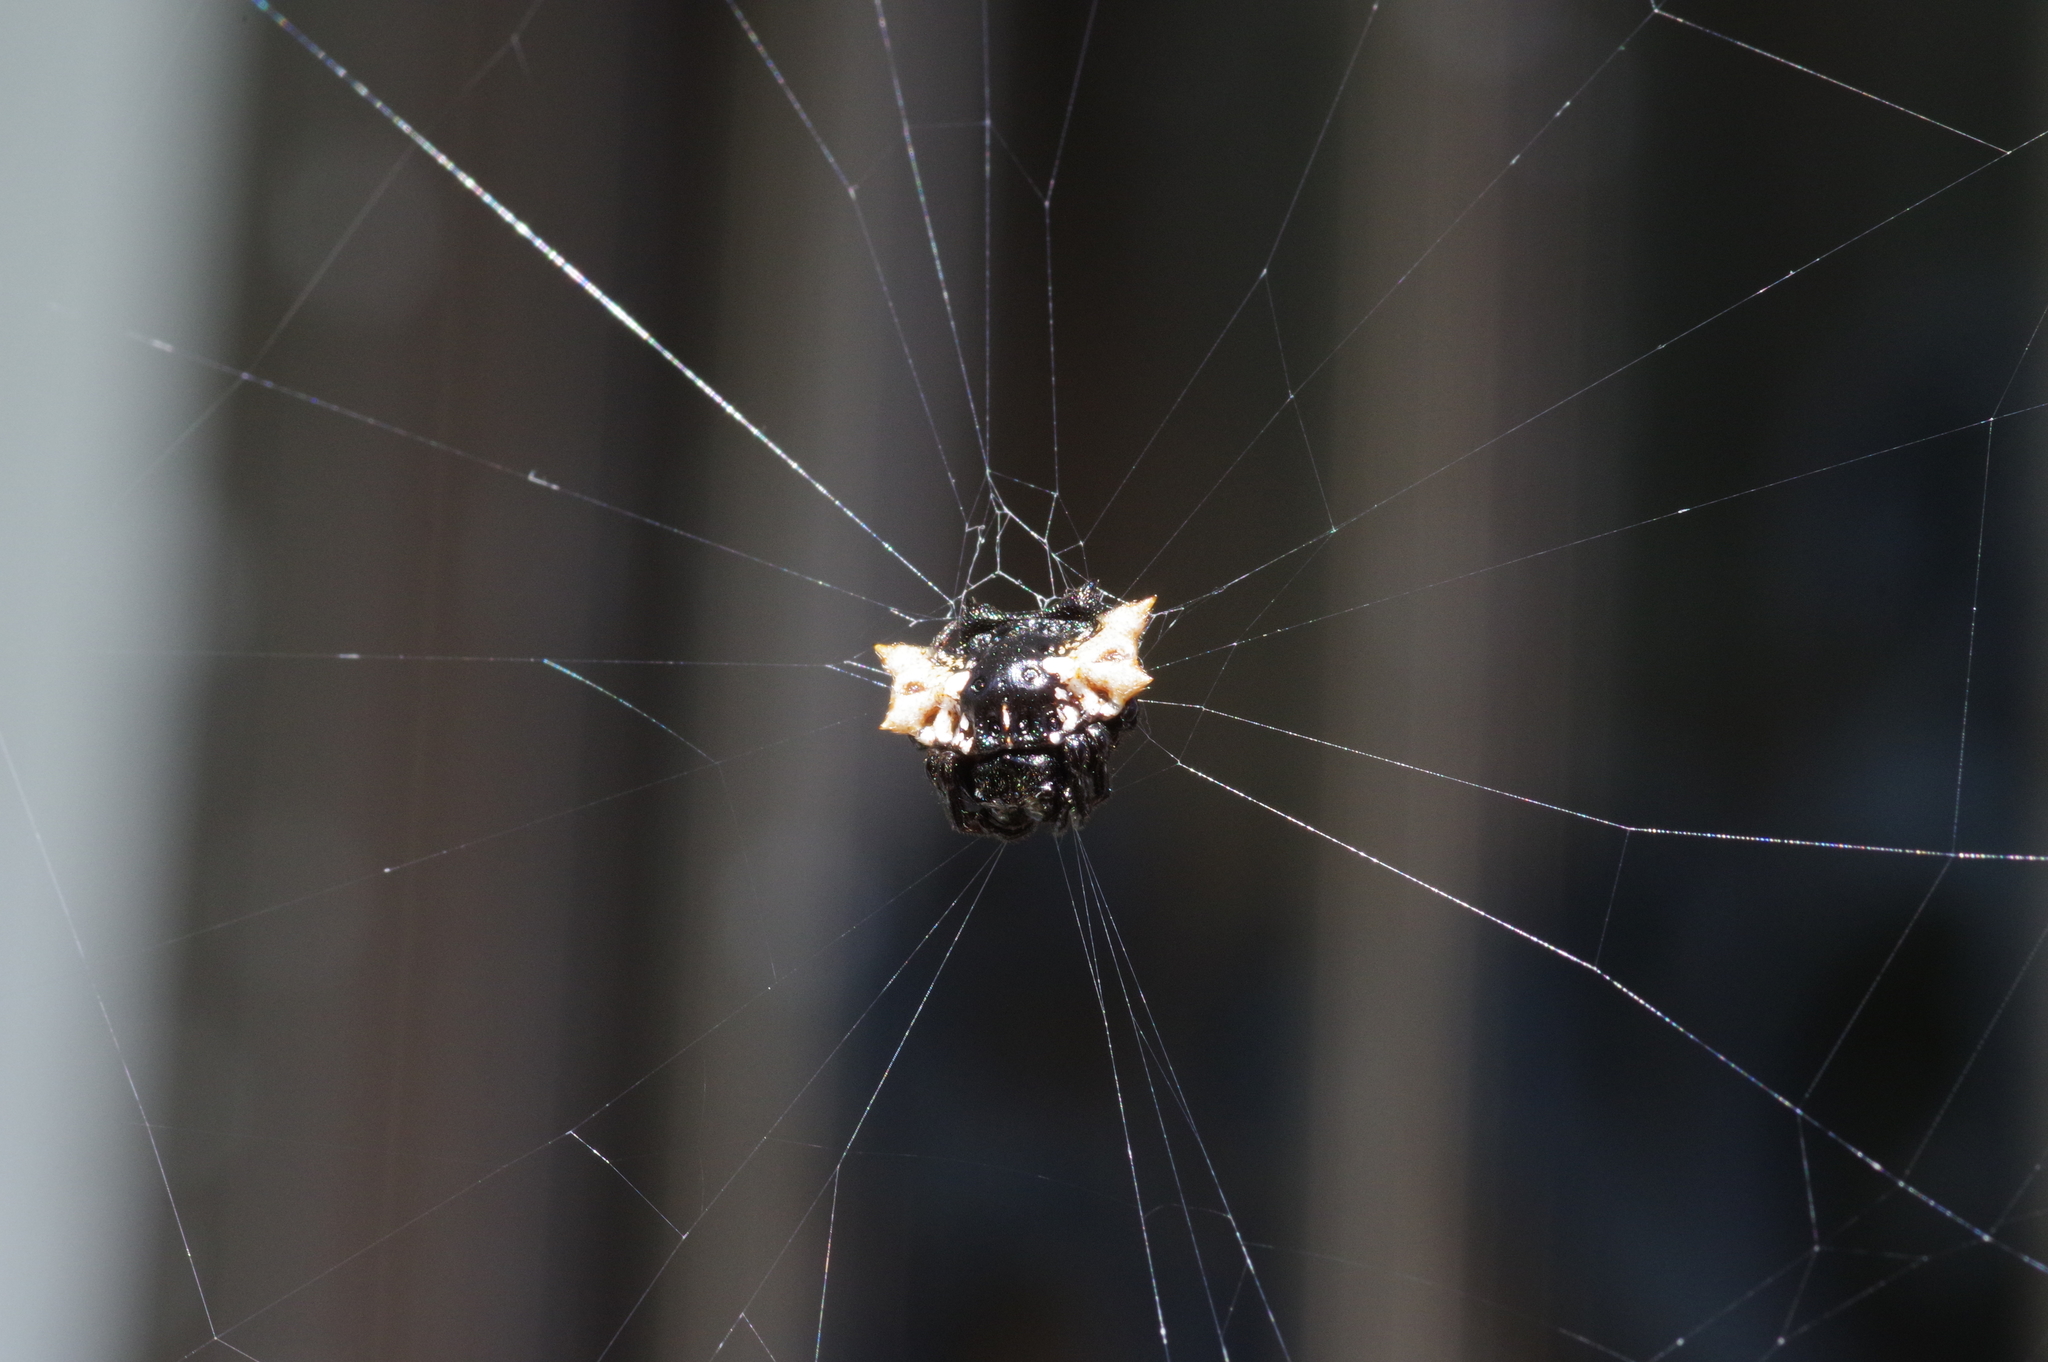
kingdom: Animalia
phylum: Arthropoda
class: Arachnida
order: Araneae
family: Araneidae
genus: Gasteracantha
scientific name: Gasteracantha mediofusca
